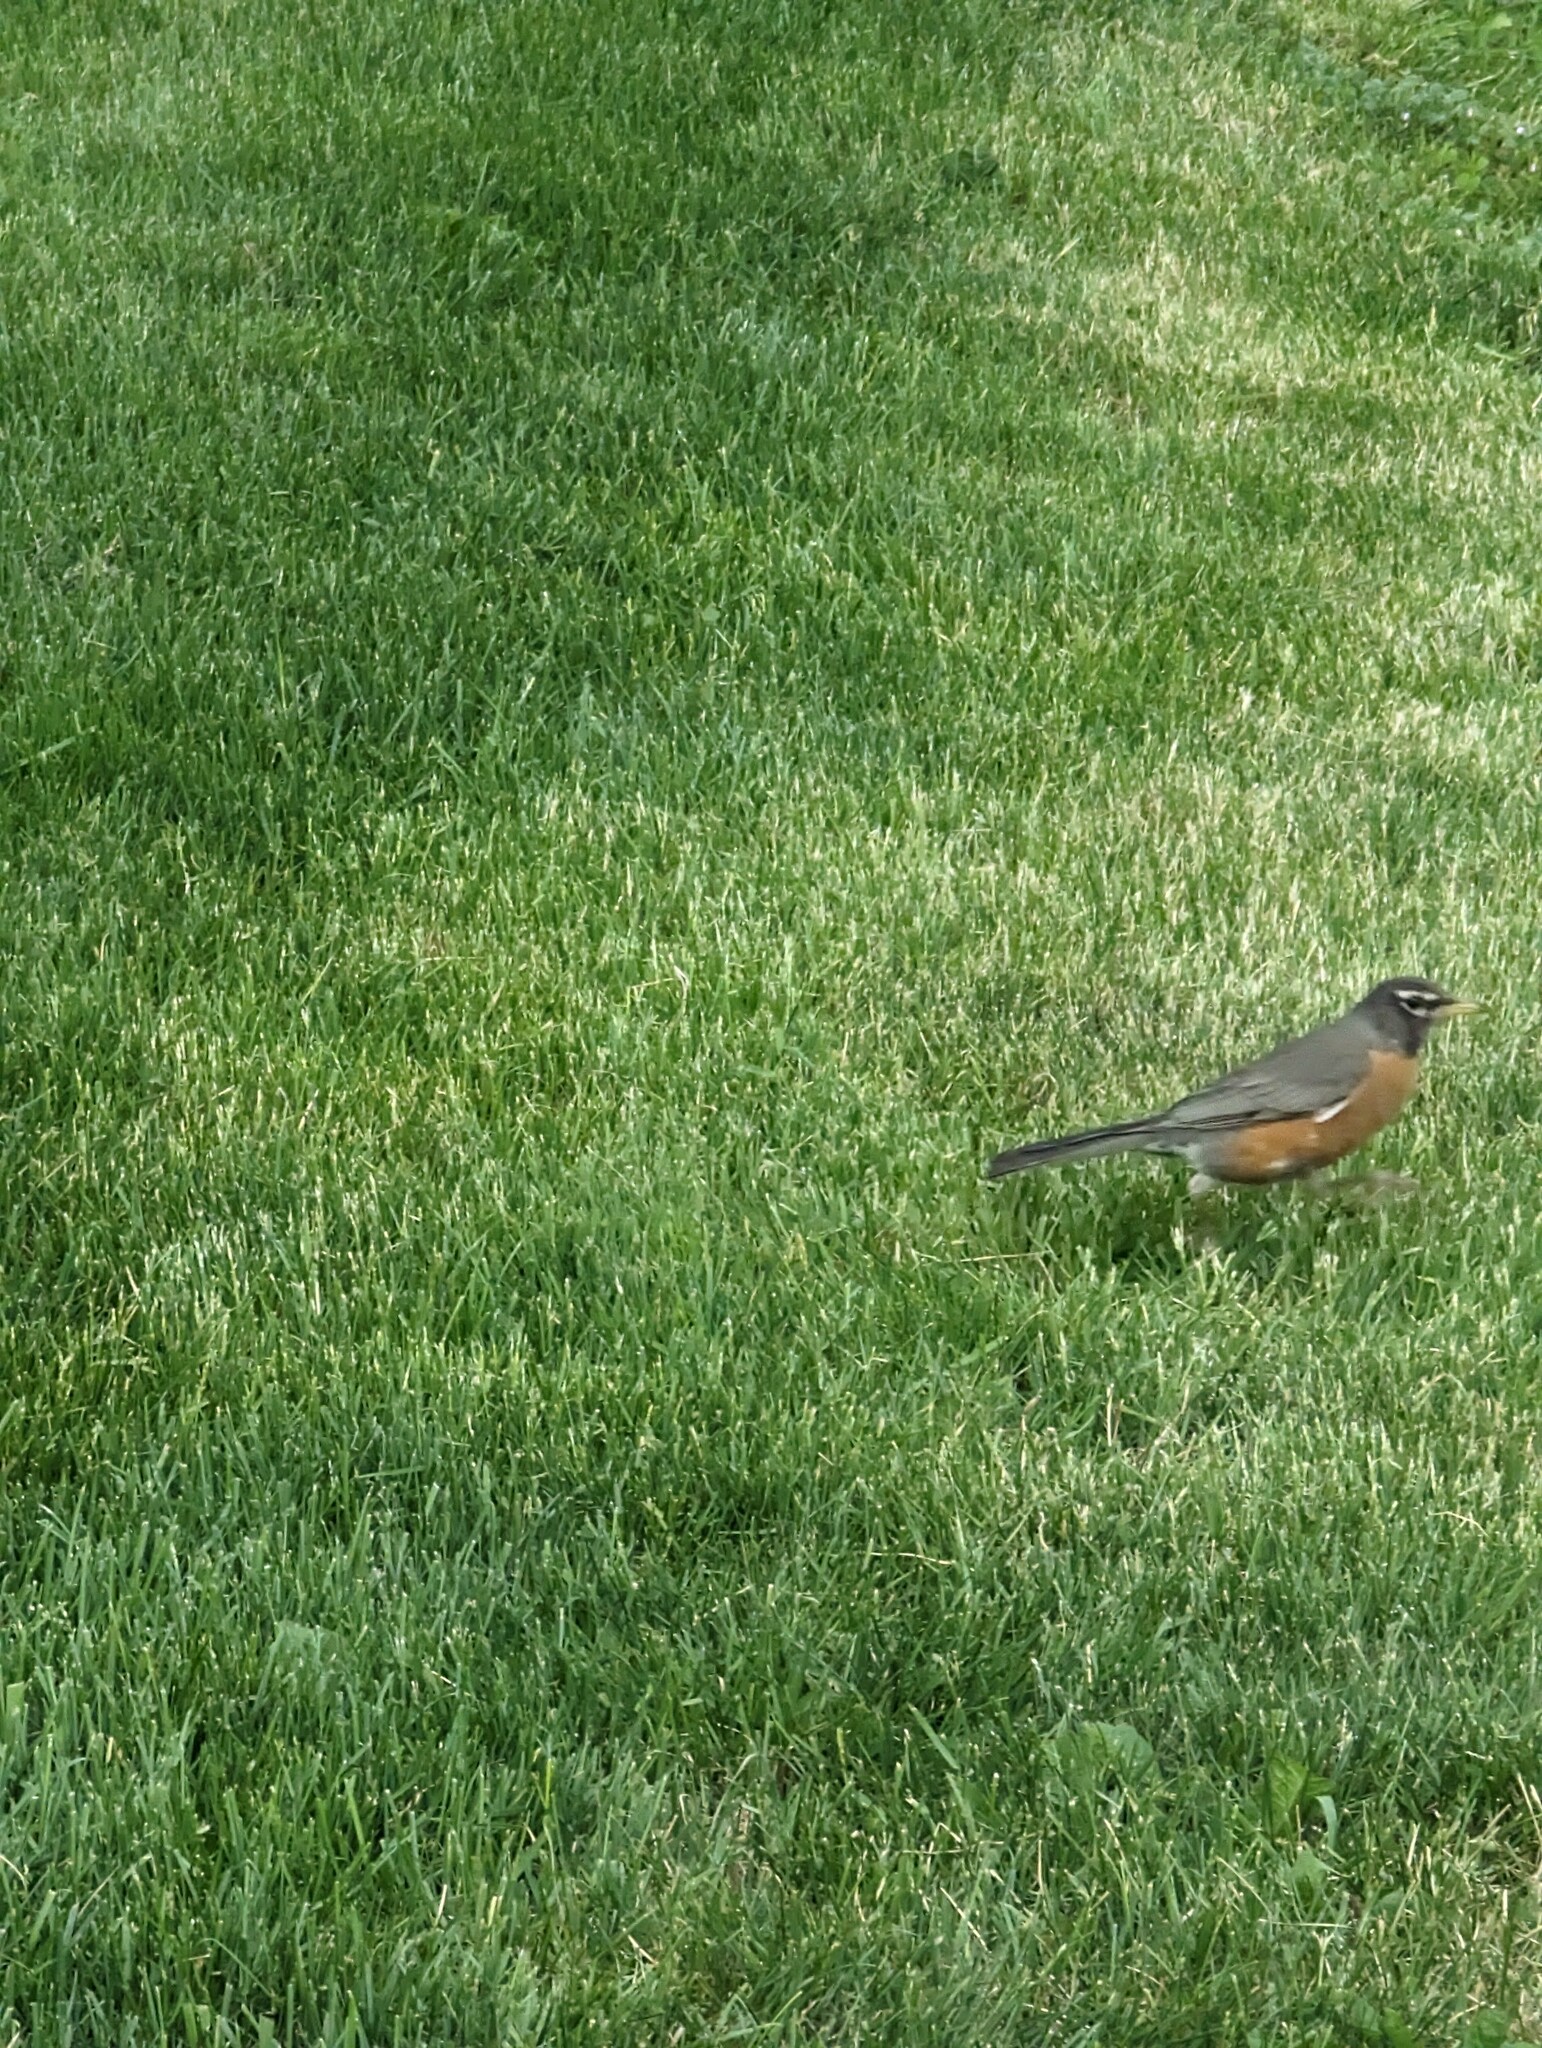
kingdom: Animalia
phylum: Chordata
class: Aves
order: Passeriformes
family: Turdidae
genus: Turdus
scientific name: Turdus migratorius
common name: American robin
